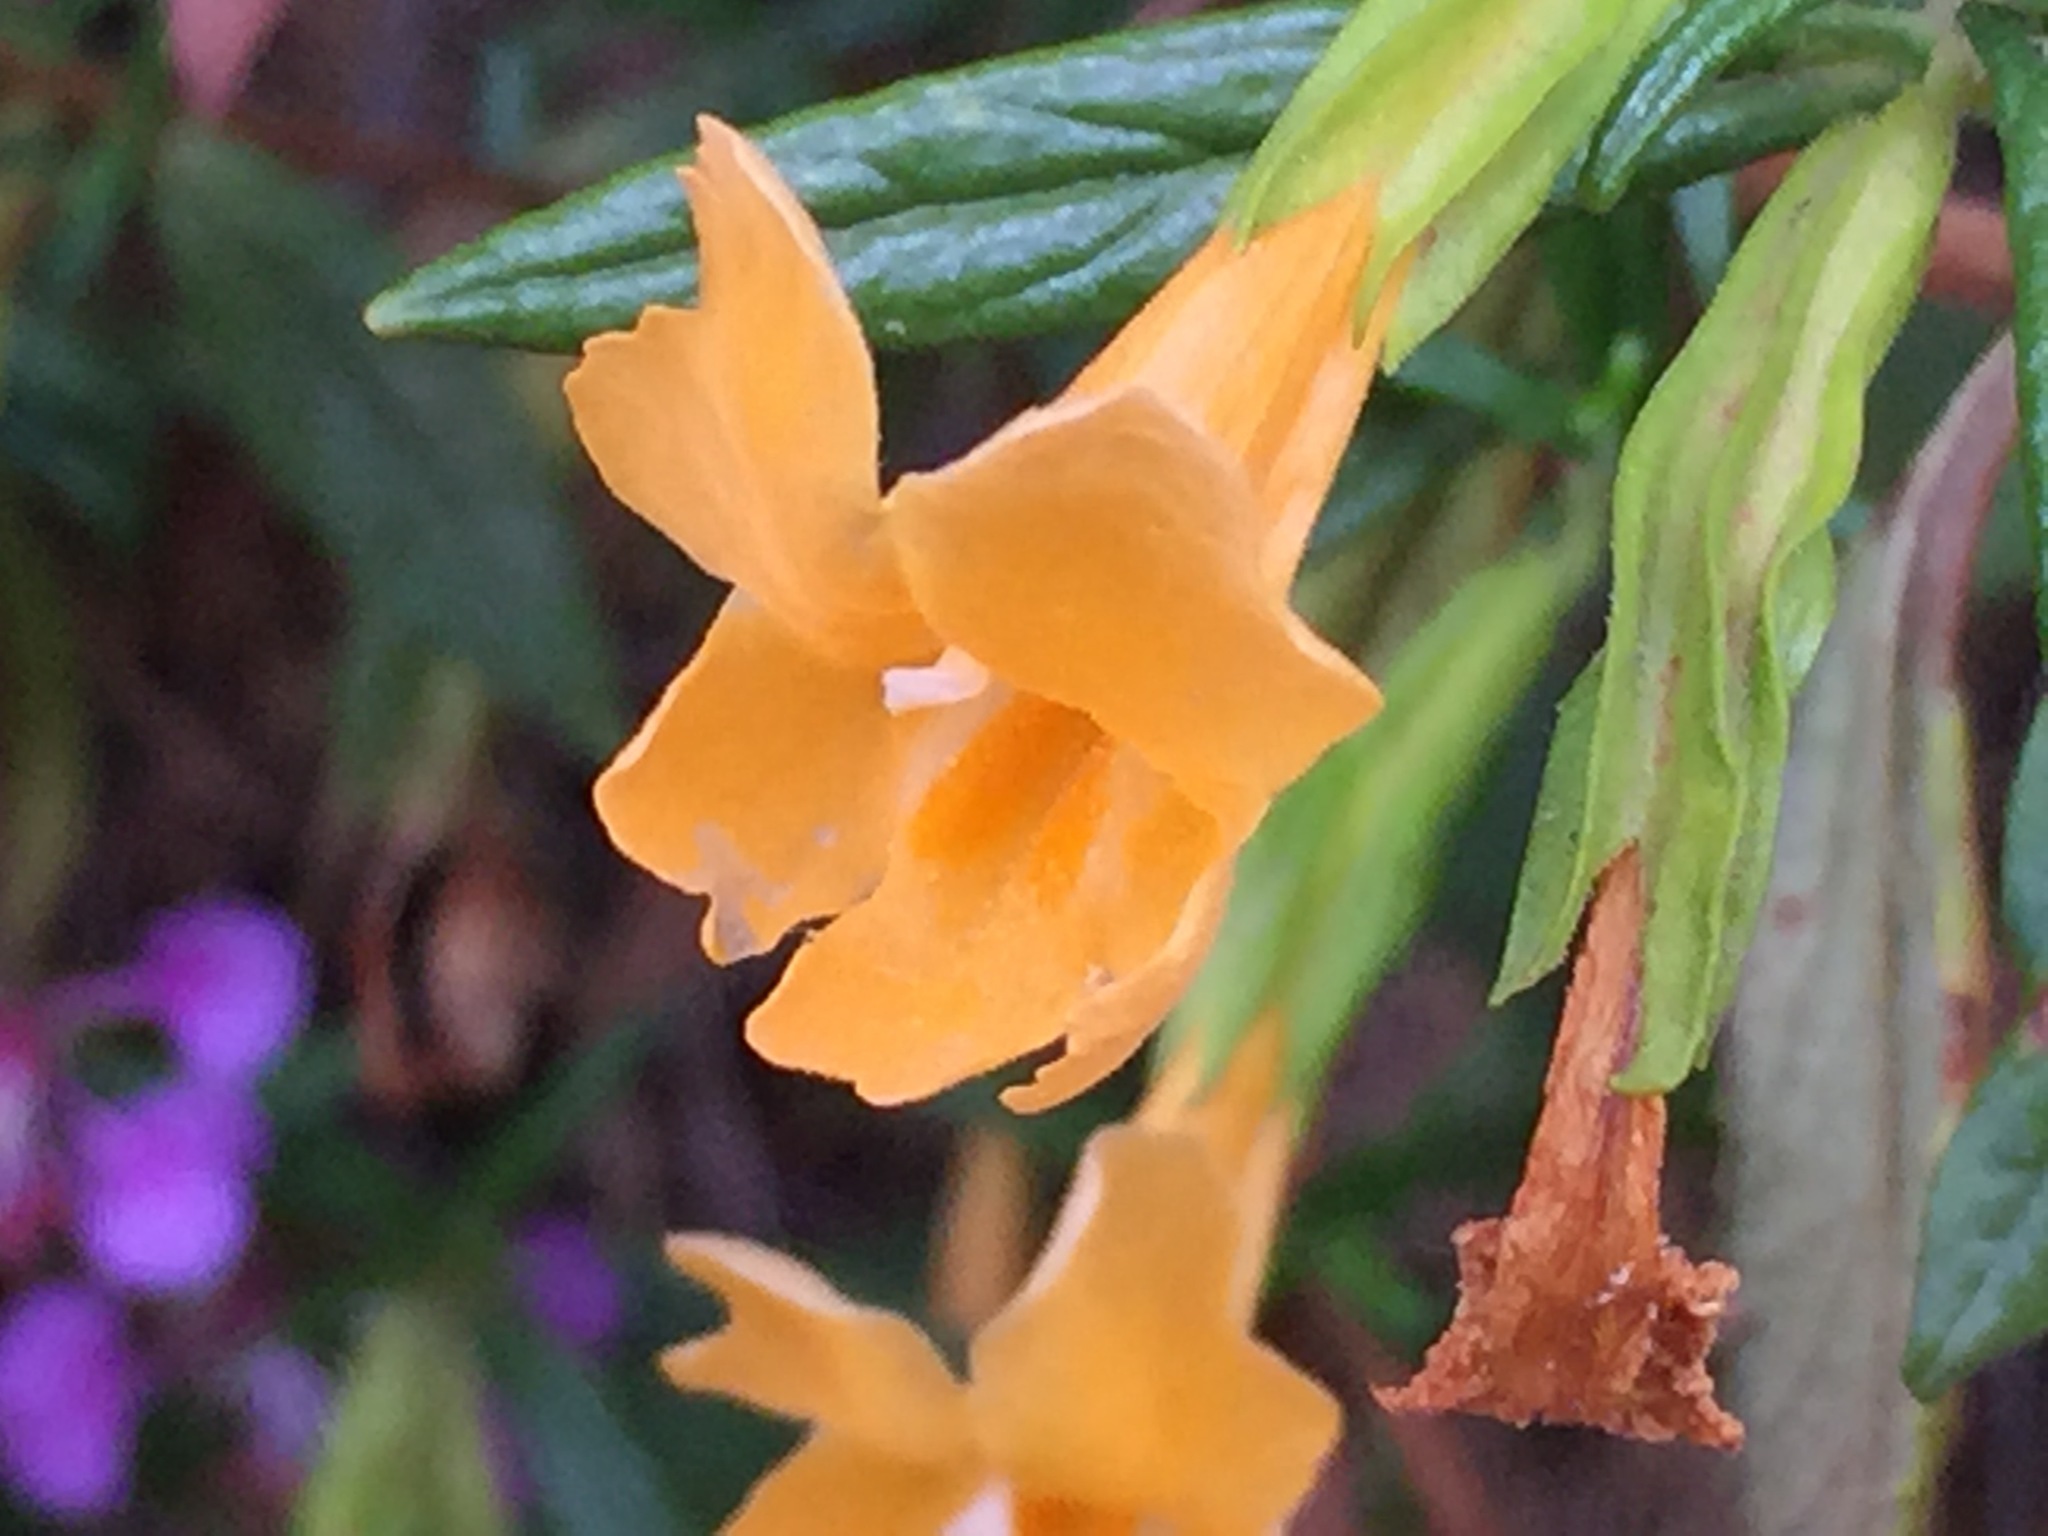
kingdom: Plantae
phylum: Tracheophyta
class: Magnoliopsida
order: Lamiales
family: Phrymaceae
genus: Diplacus
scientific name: Diplacus aurantiacus
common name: Bush monkey-flower
